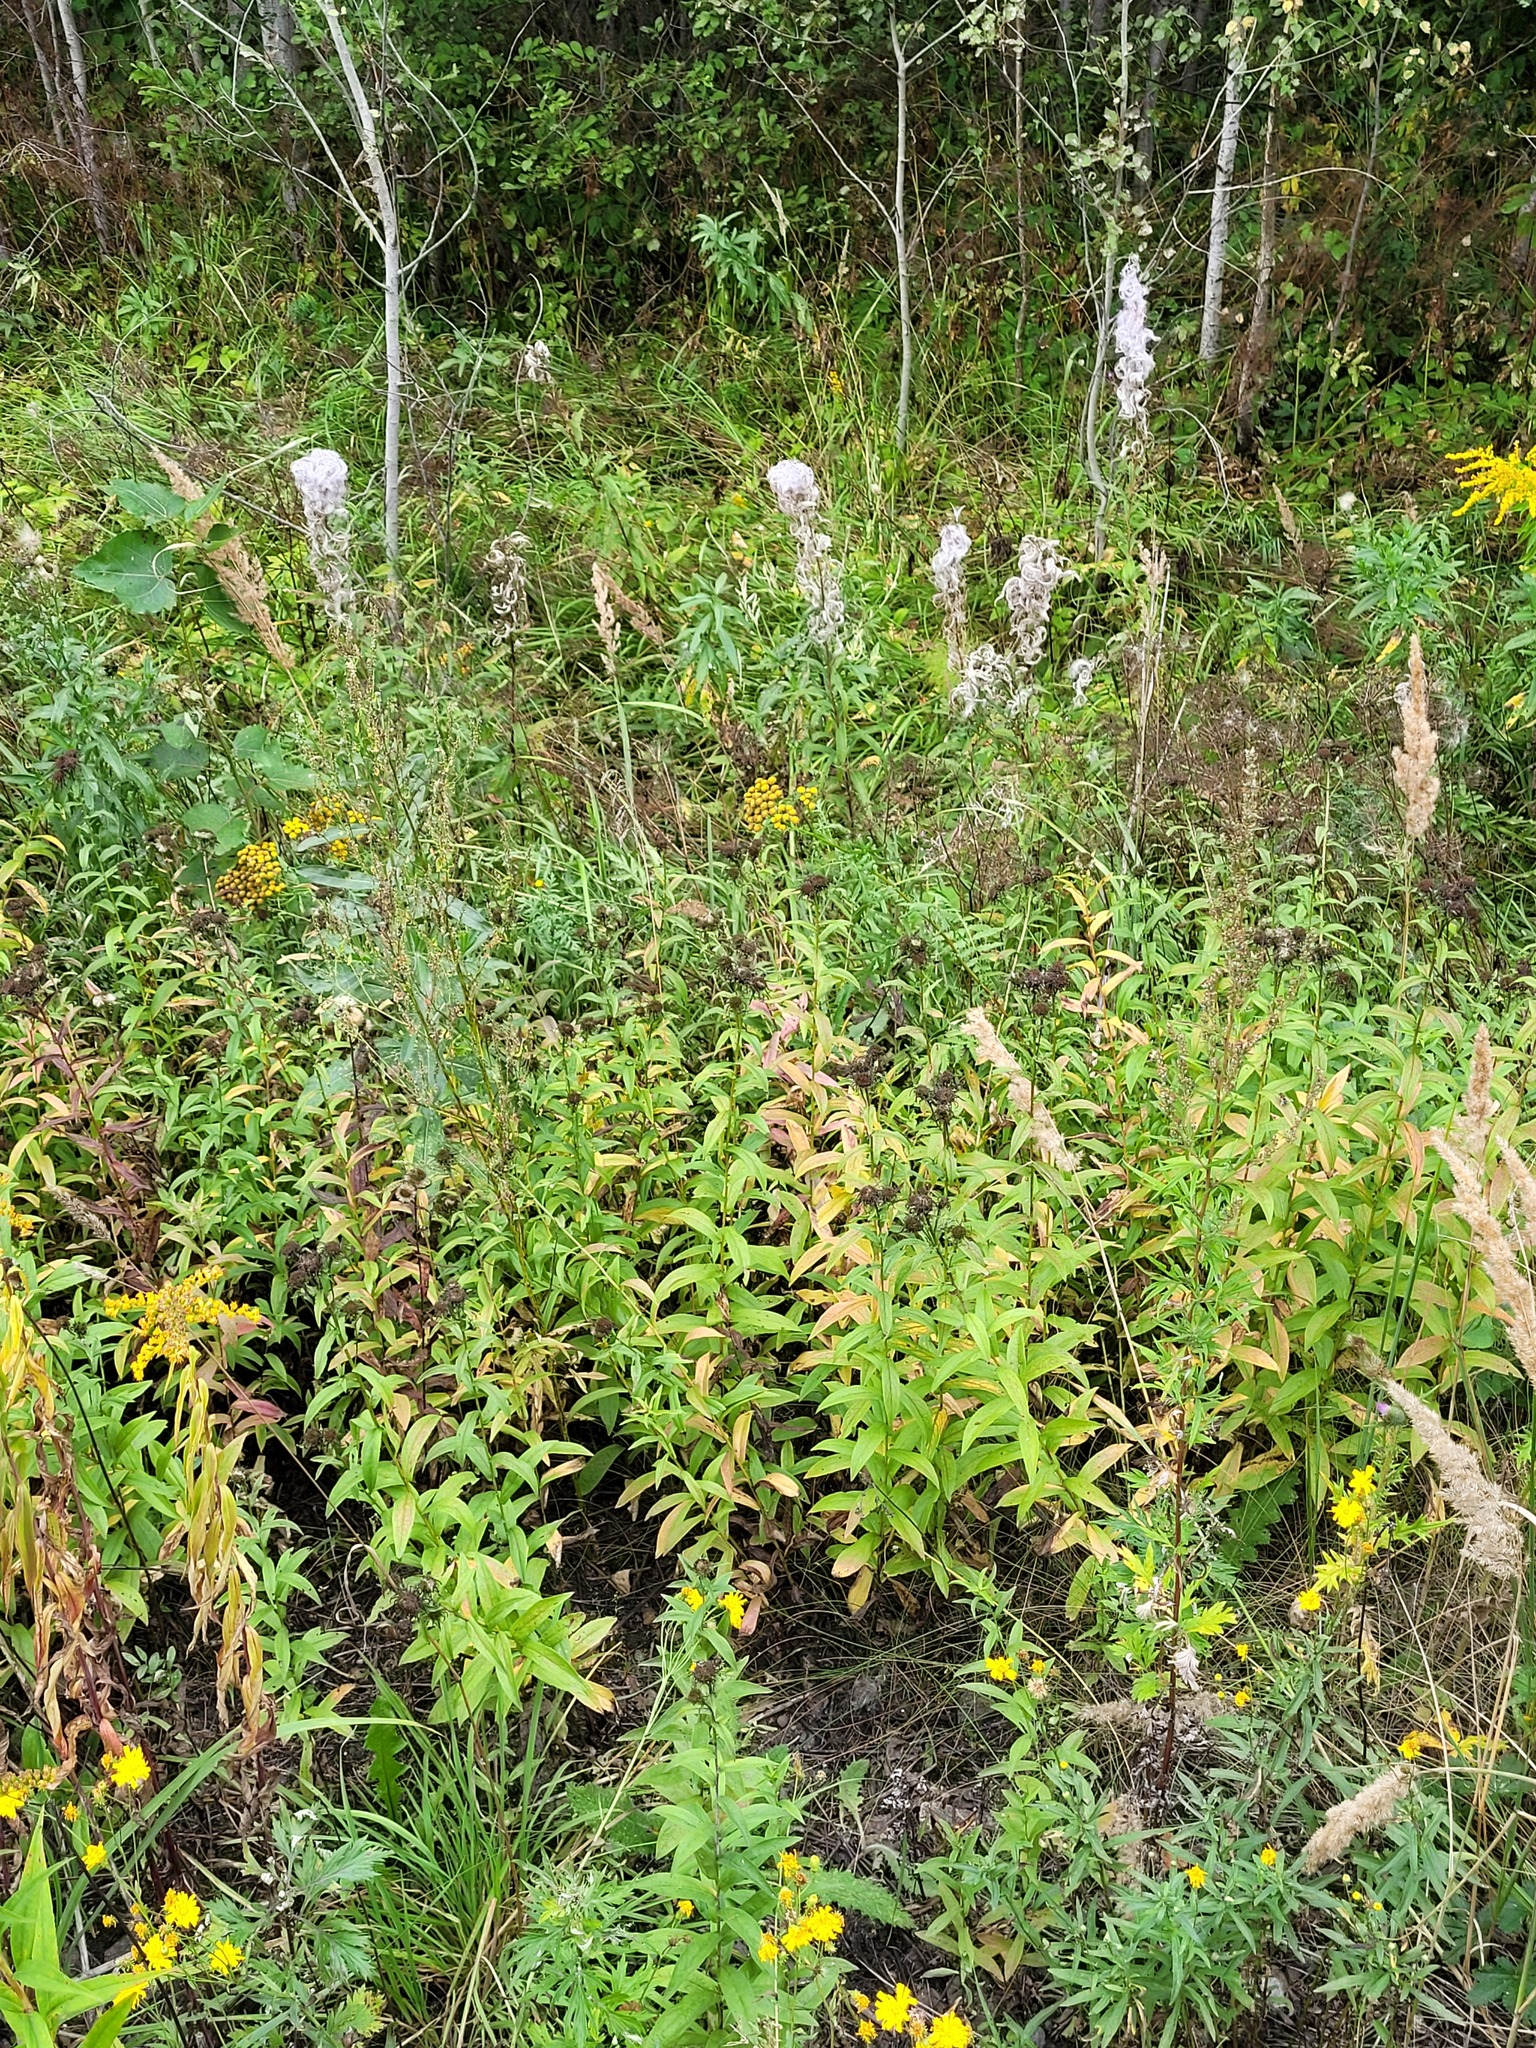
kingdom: Plantae
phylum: Tracheophyta
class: Magnoliopsida
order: Asterales
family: Asteraceae
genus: Pentanema
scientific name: Pentanema salicinum
